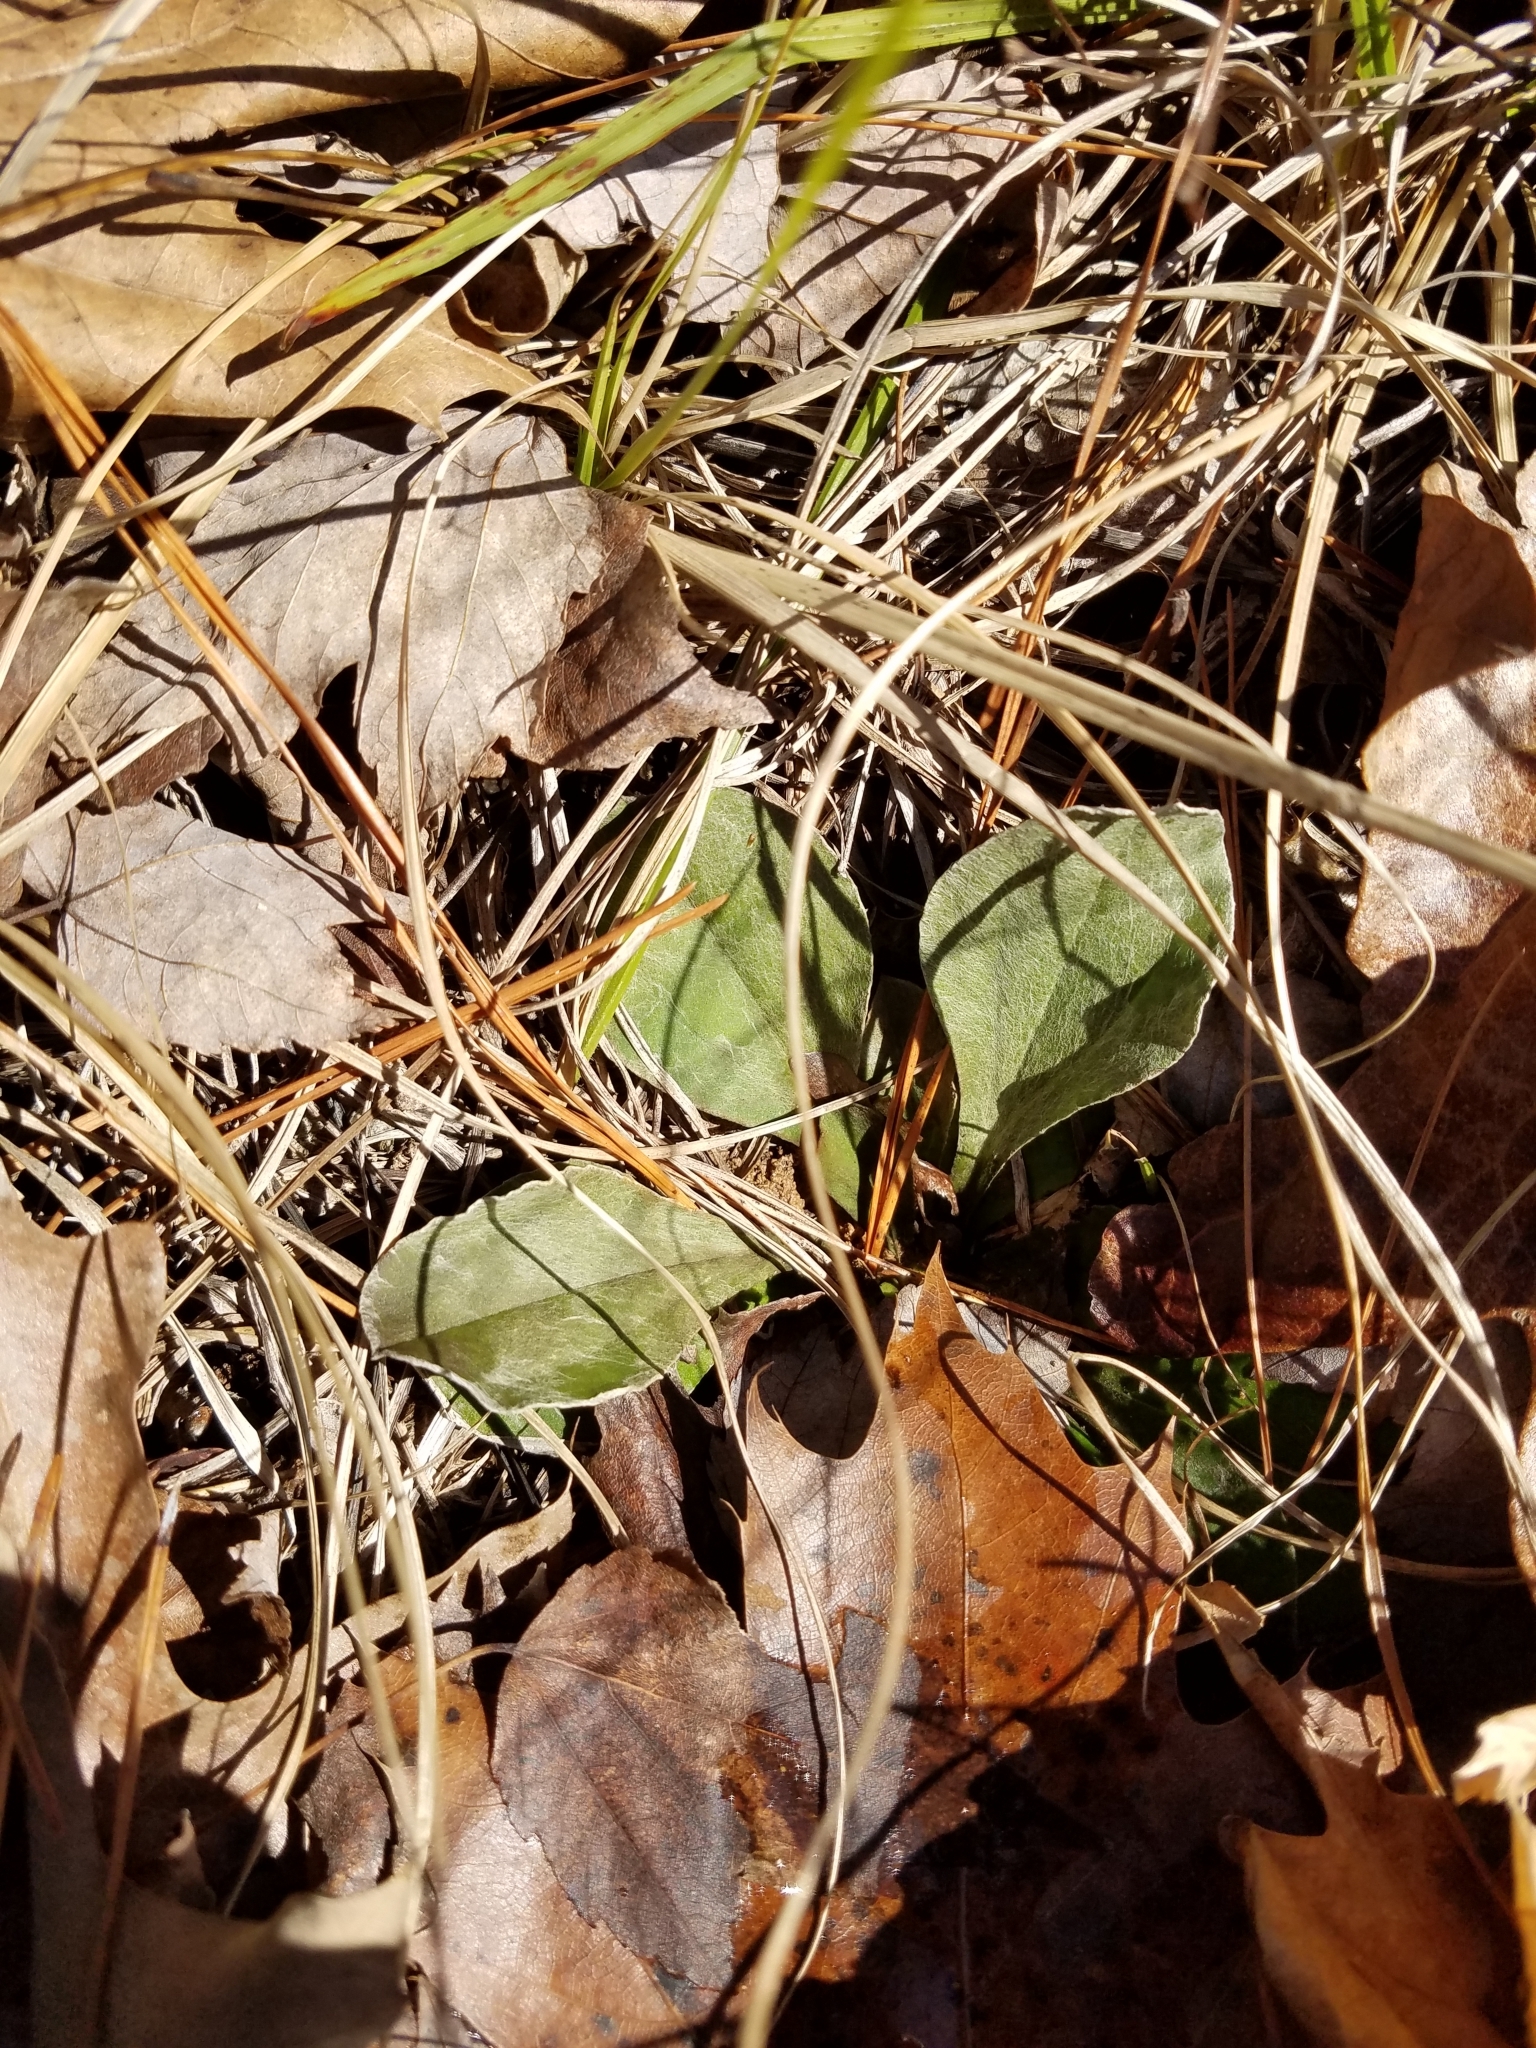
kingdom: Plantae
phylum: Tracheophyta
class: Magnoliopsida
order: Asterales
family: Asteraceae
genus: Antennaria
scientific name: Antennaria plantaginifolia
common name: Plantain-leaved pussytoes
